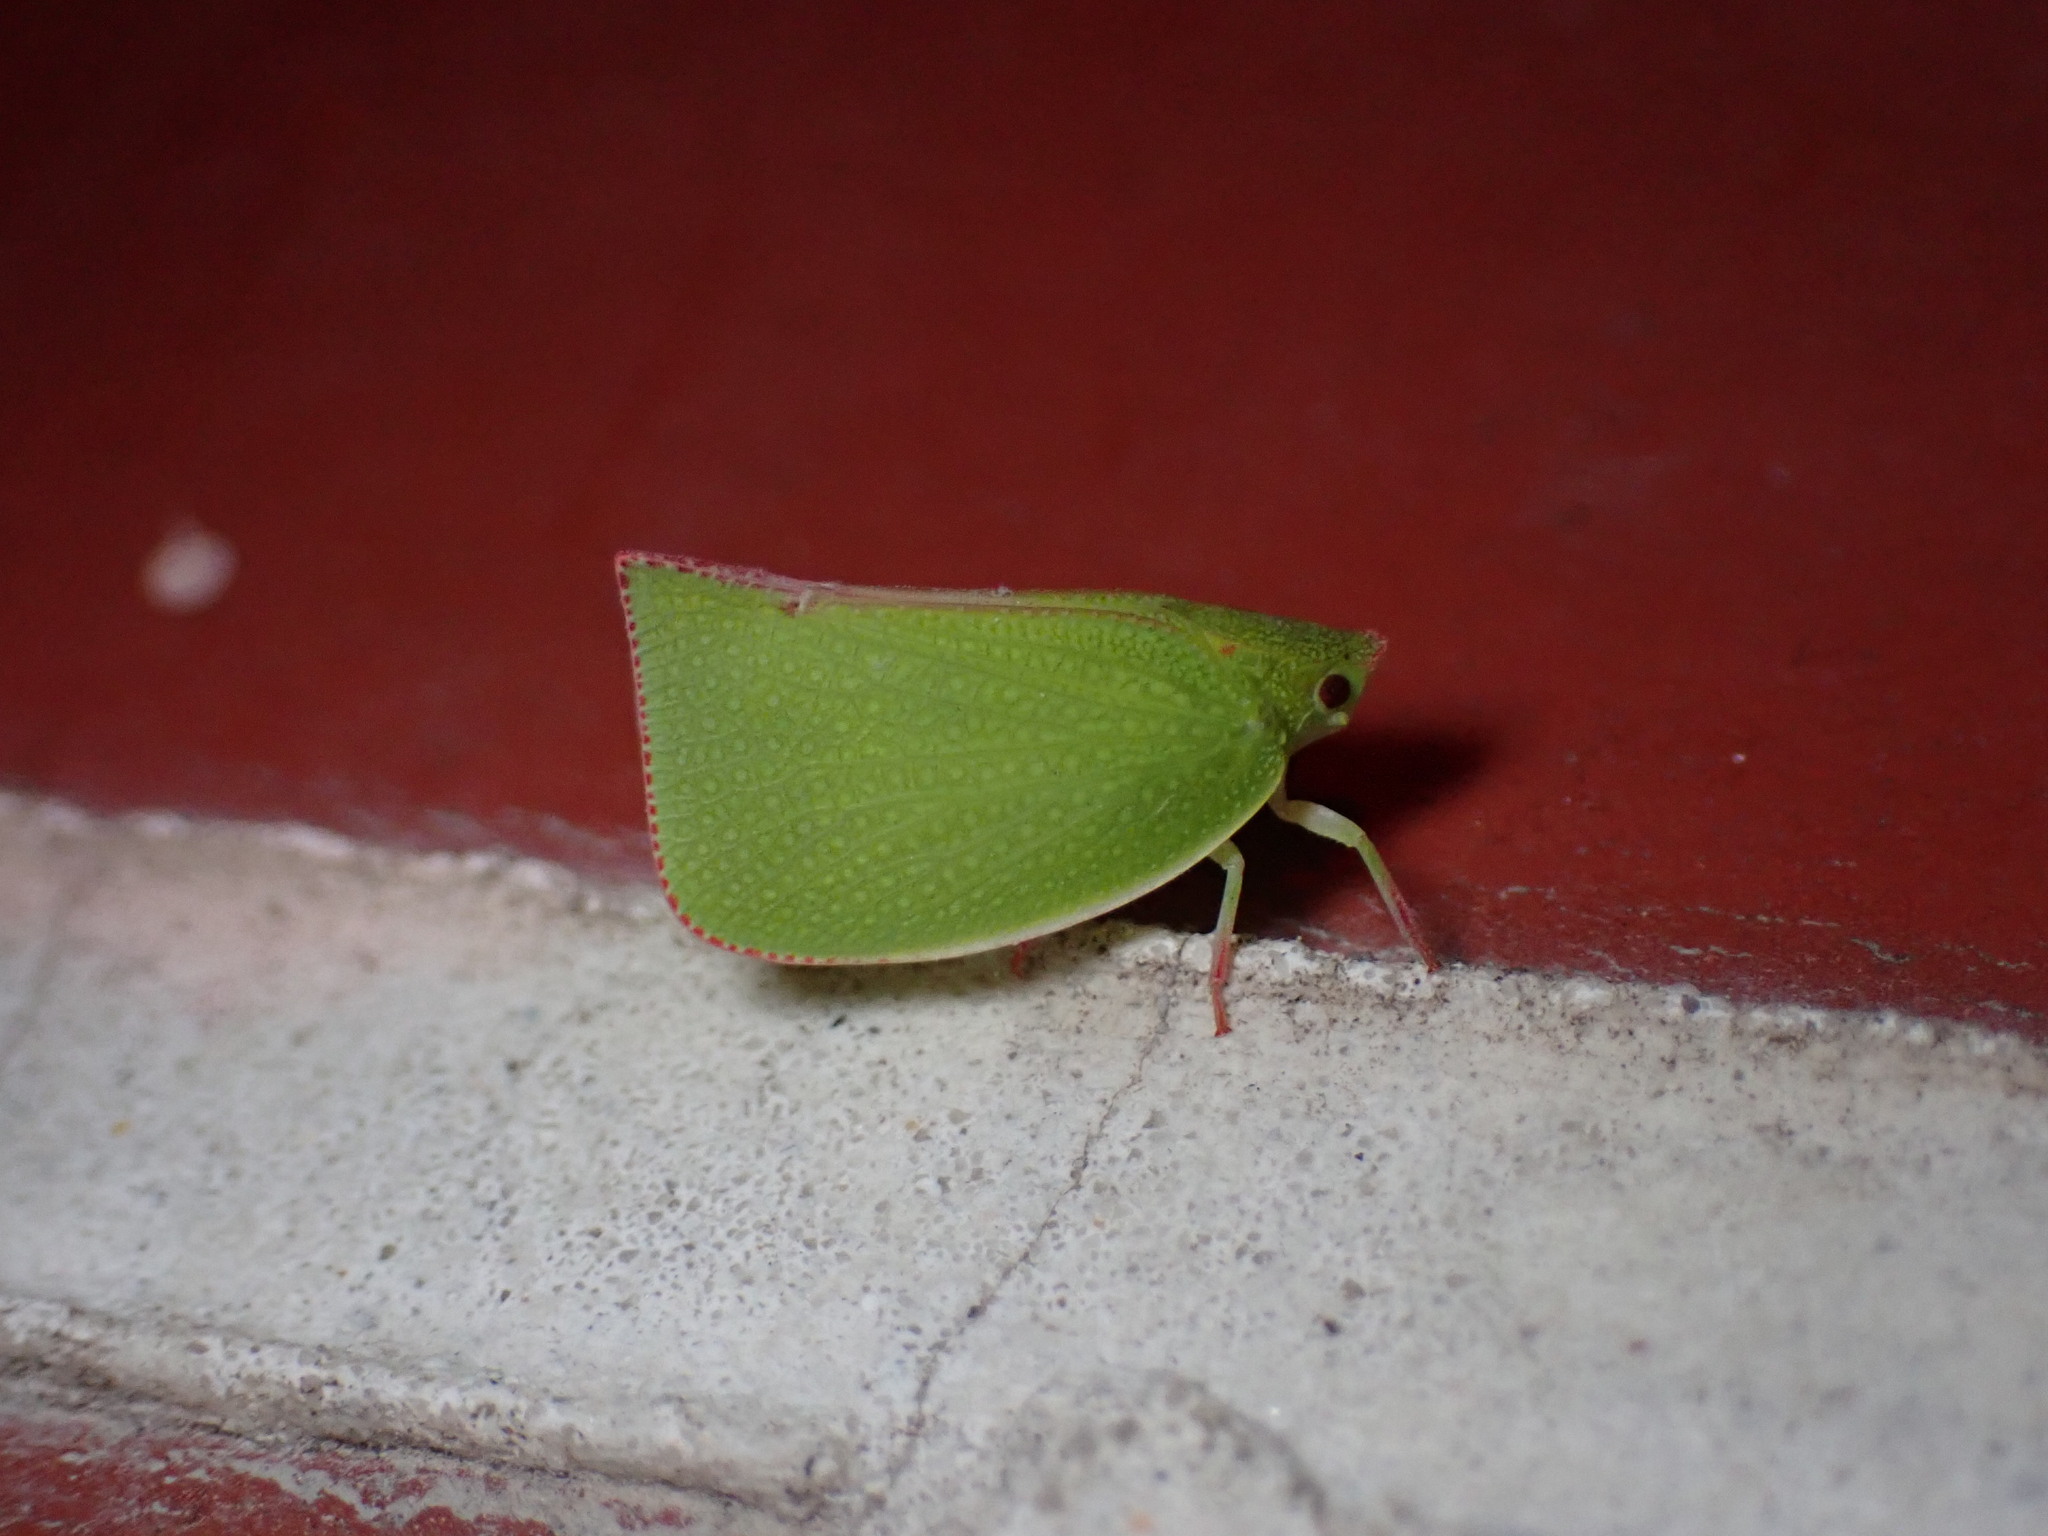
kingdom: Animalia
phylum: Arthropoda
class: Insecta
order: Hemiptera
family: Flatidae
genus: Siphanta
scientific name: Siphanta acuta
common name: Torpedo bug
